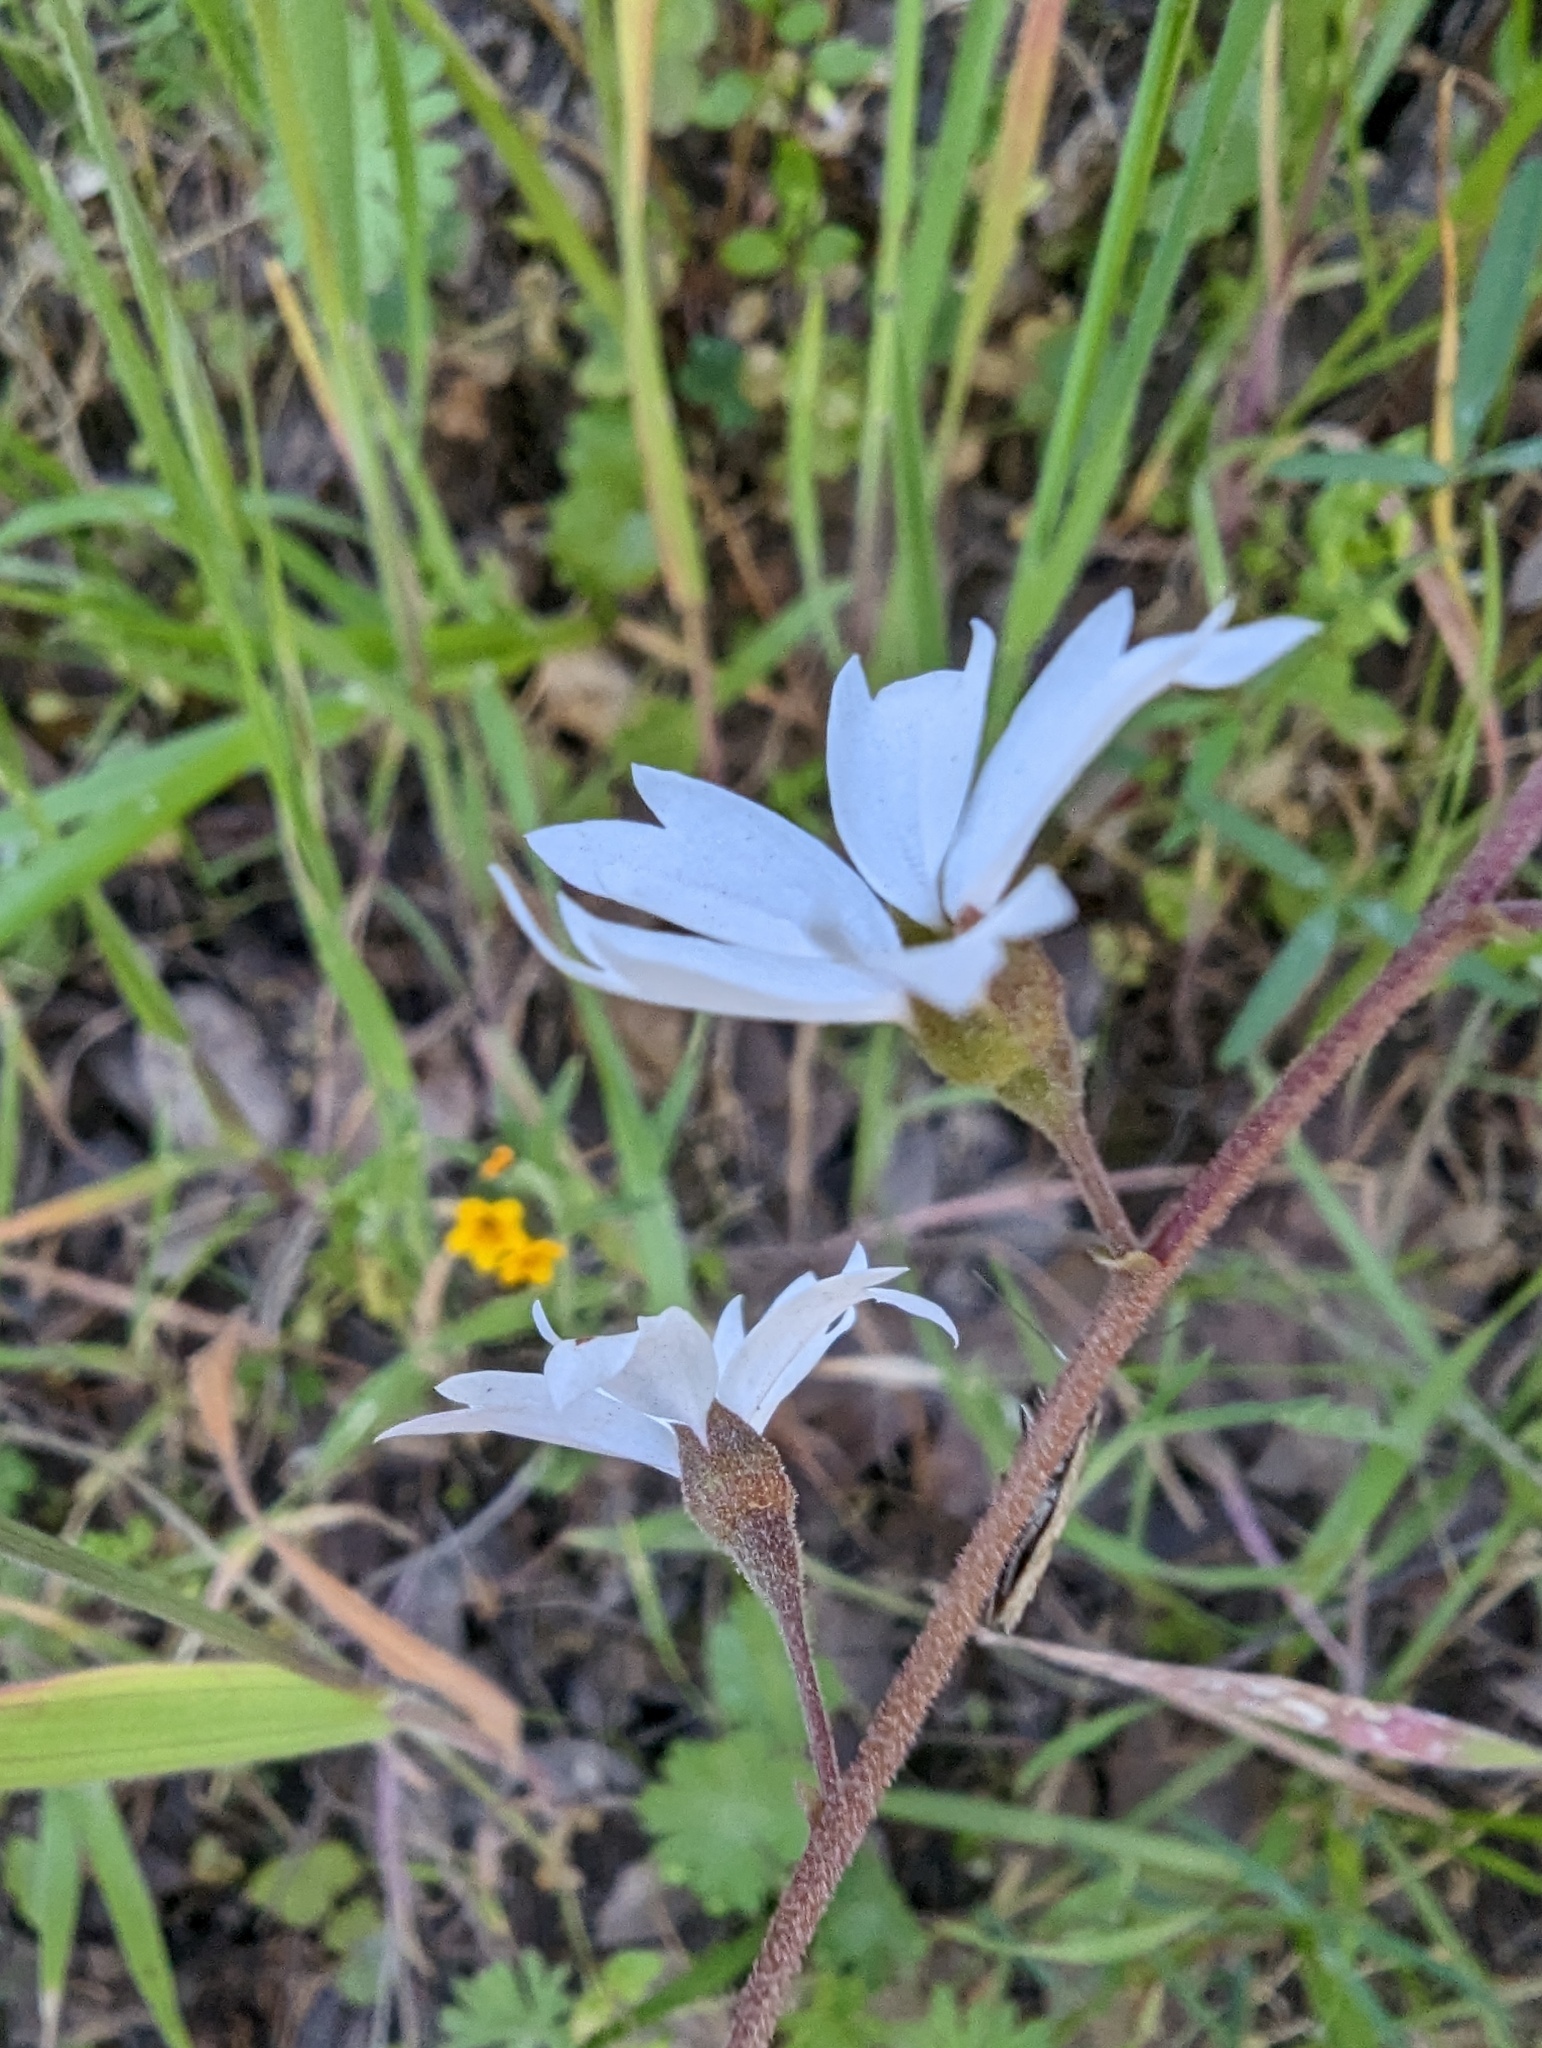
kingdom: Plantae
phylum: Tracheophyta
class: Magnoliopsida
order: Saxifragales
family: Saxifragaceae
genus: Lithophragma
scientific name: Lithophragma affine
